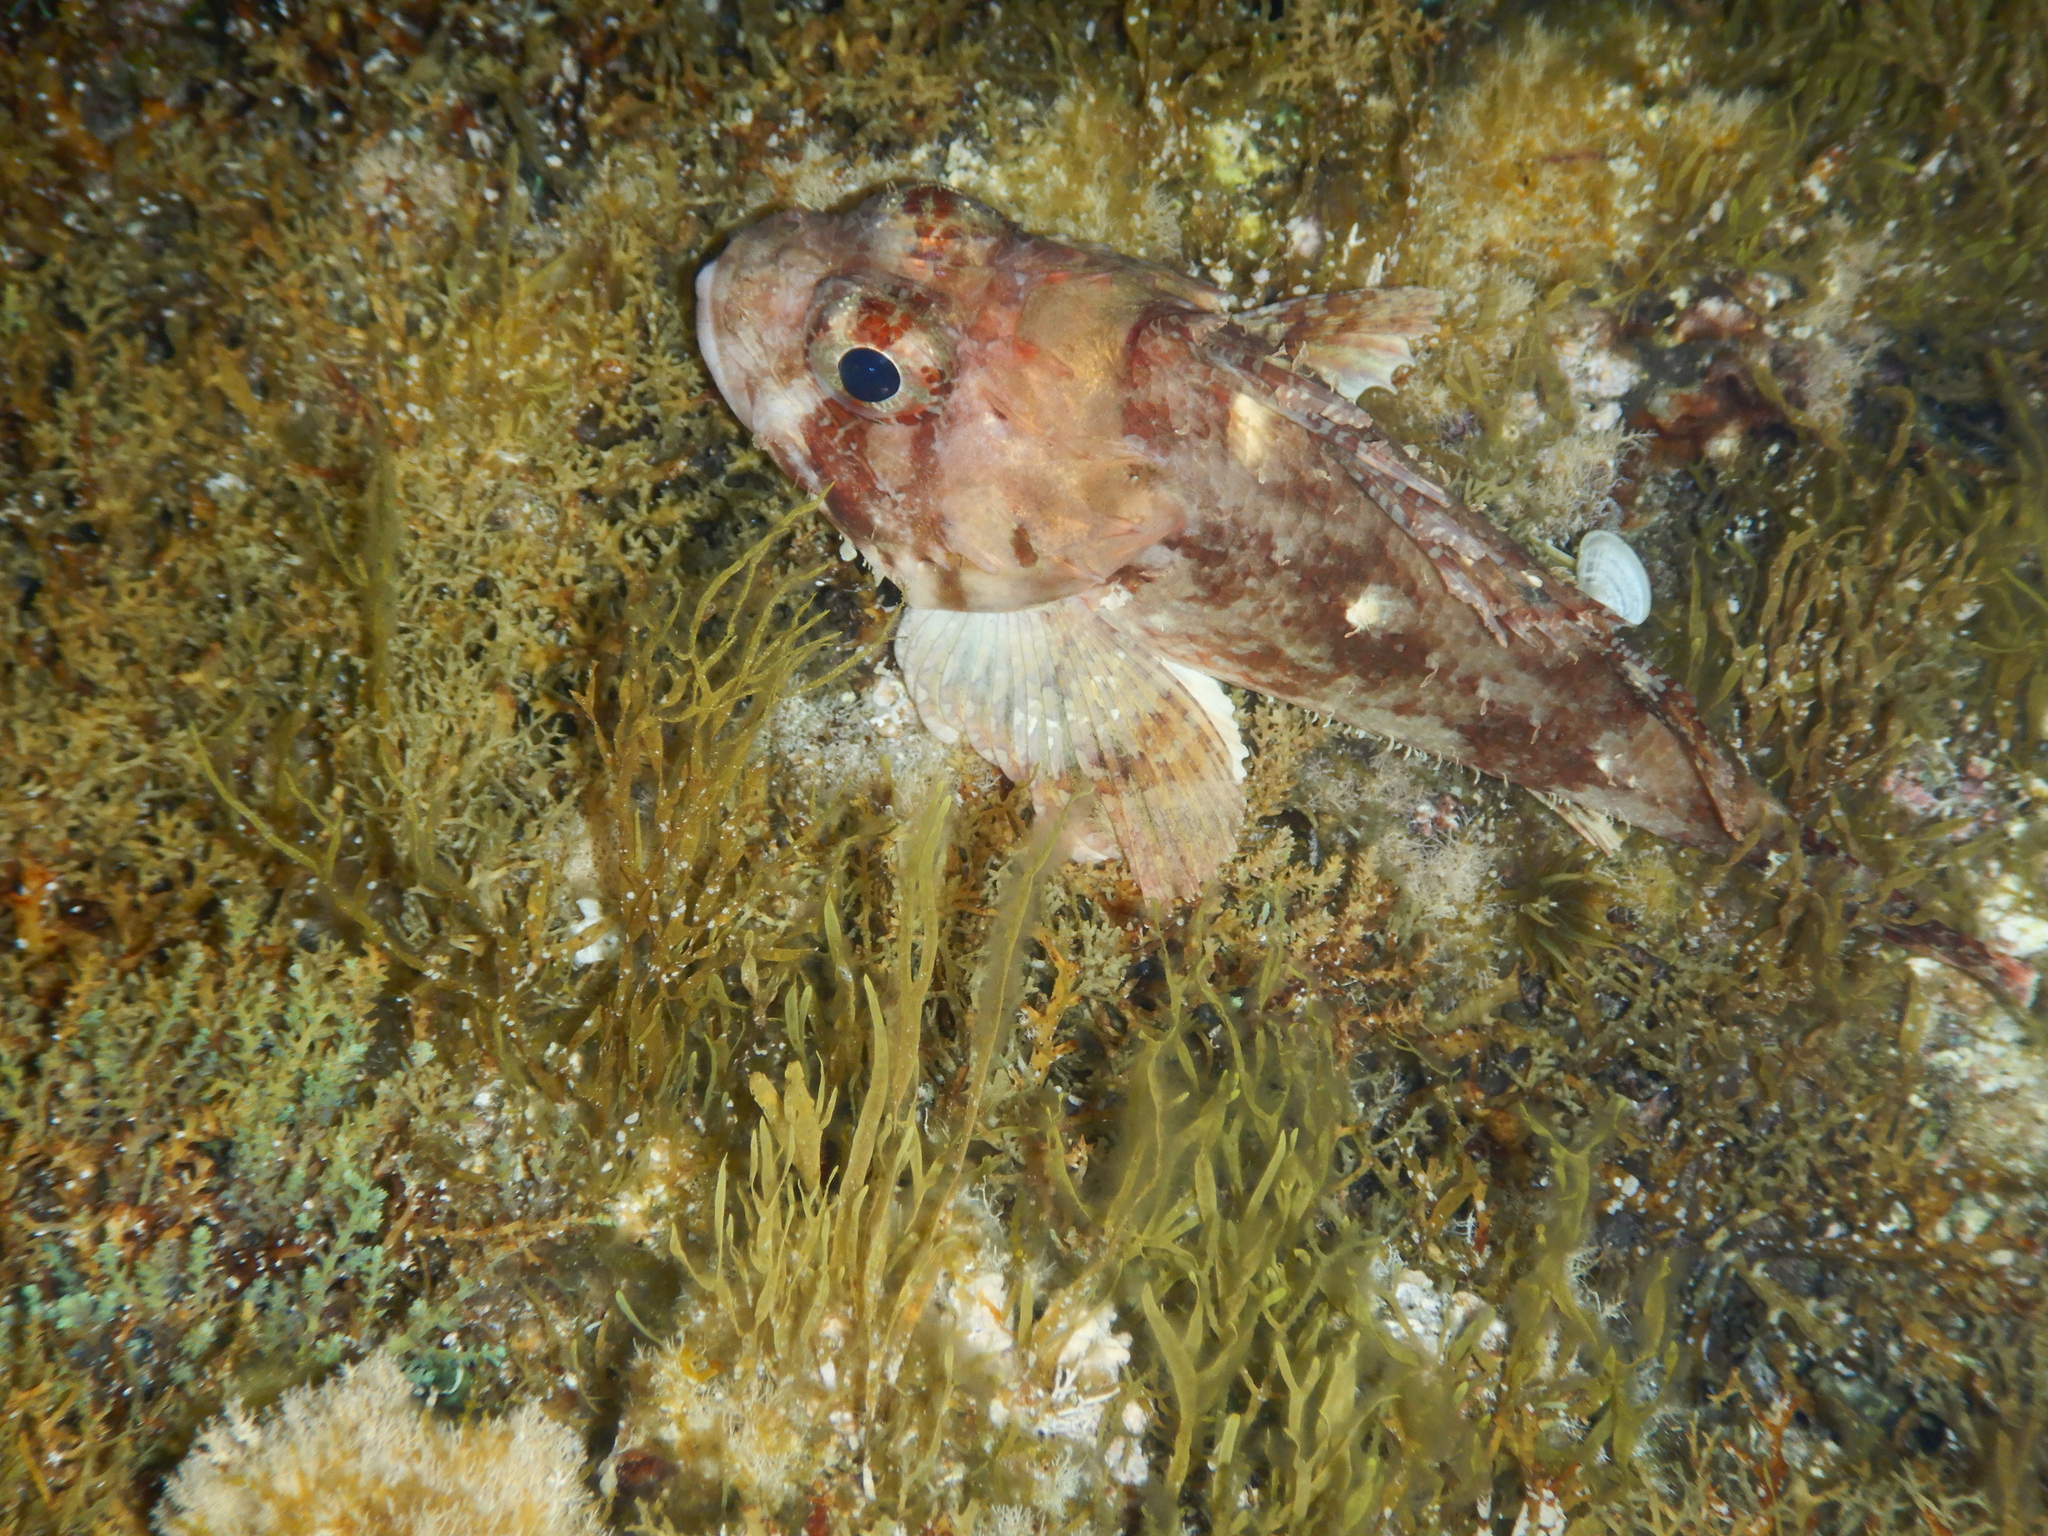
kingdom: Animalia
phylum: Chordata
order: Scorpaeniformes
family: Scorpaenidae
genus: Scorpaena
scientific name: Scorpaena notata
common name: Small red scorpionfish
